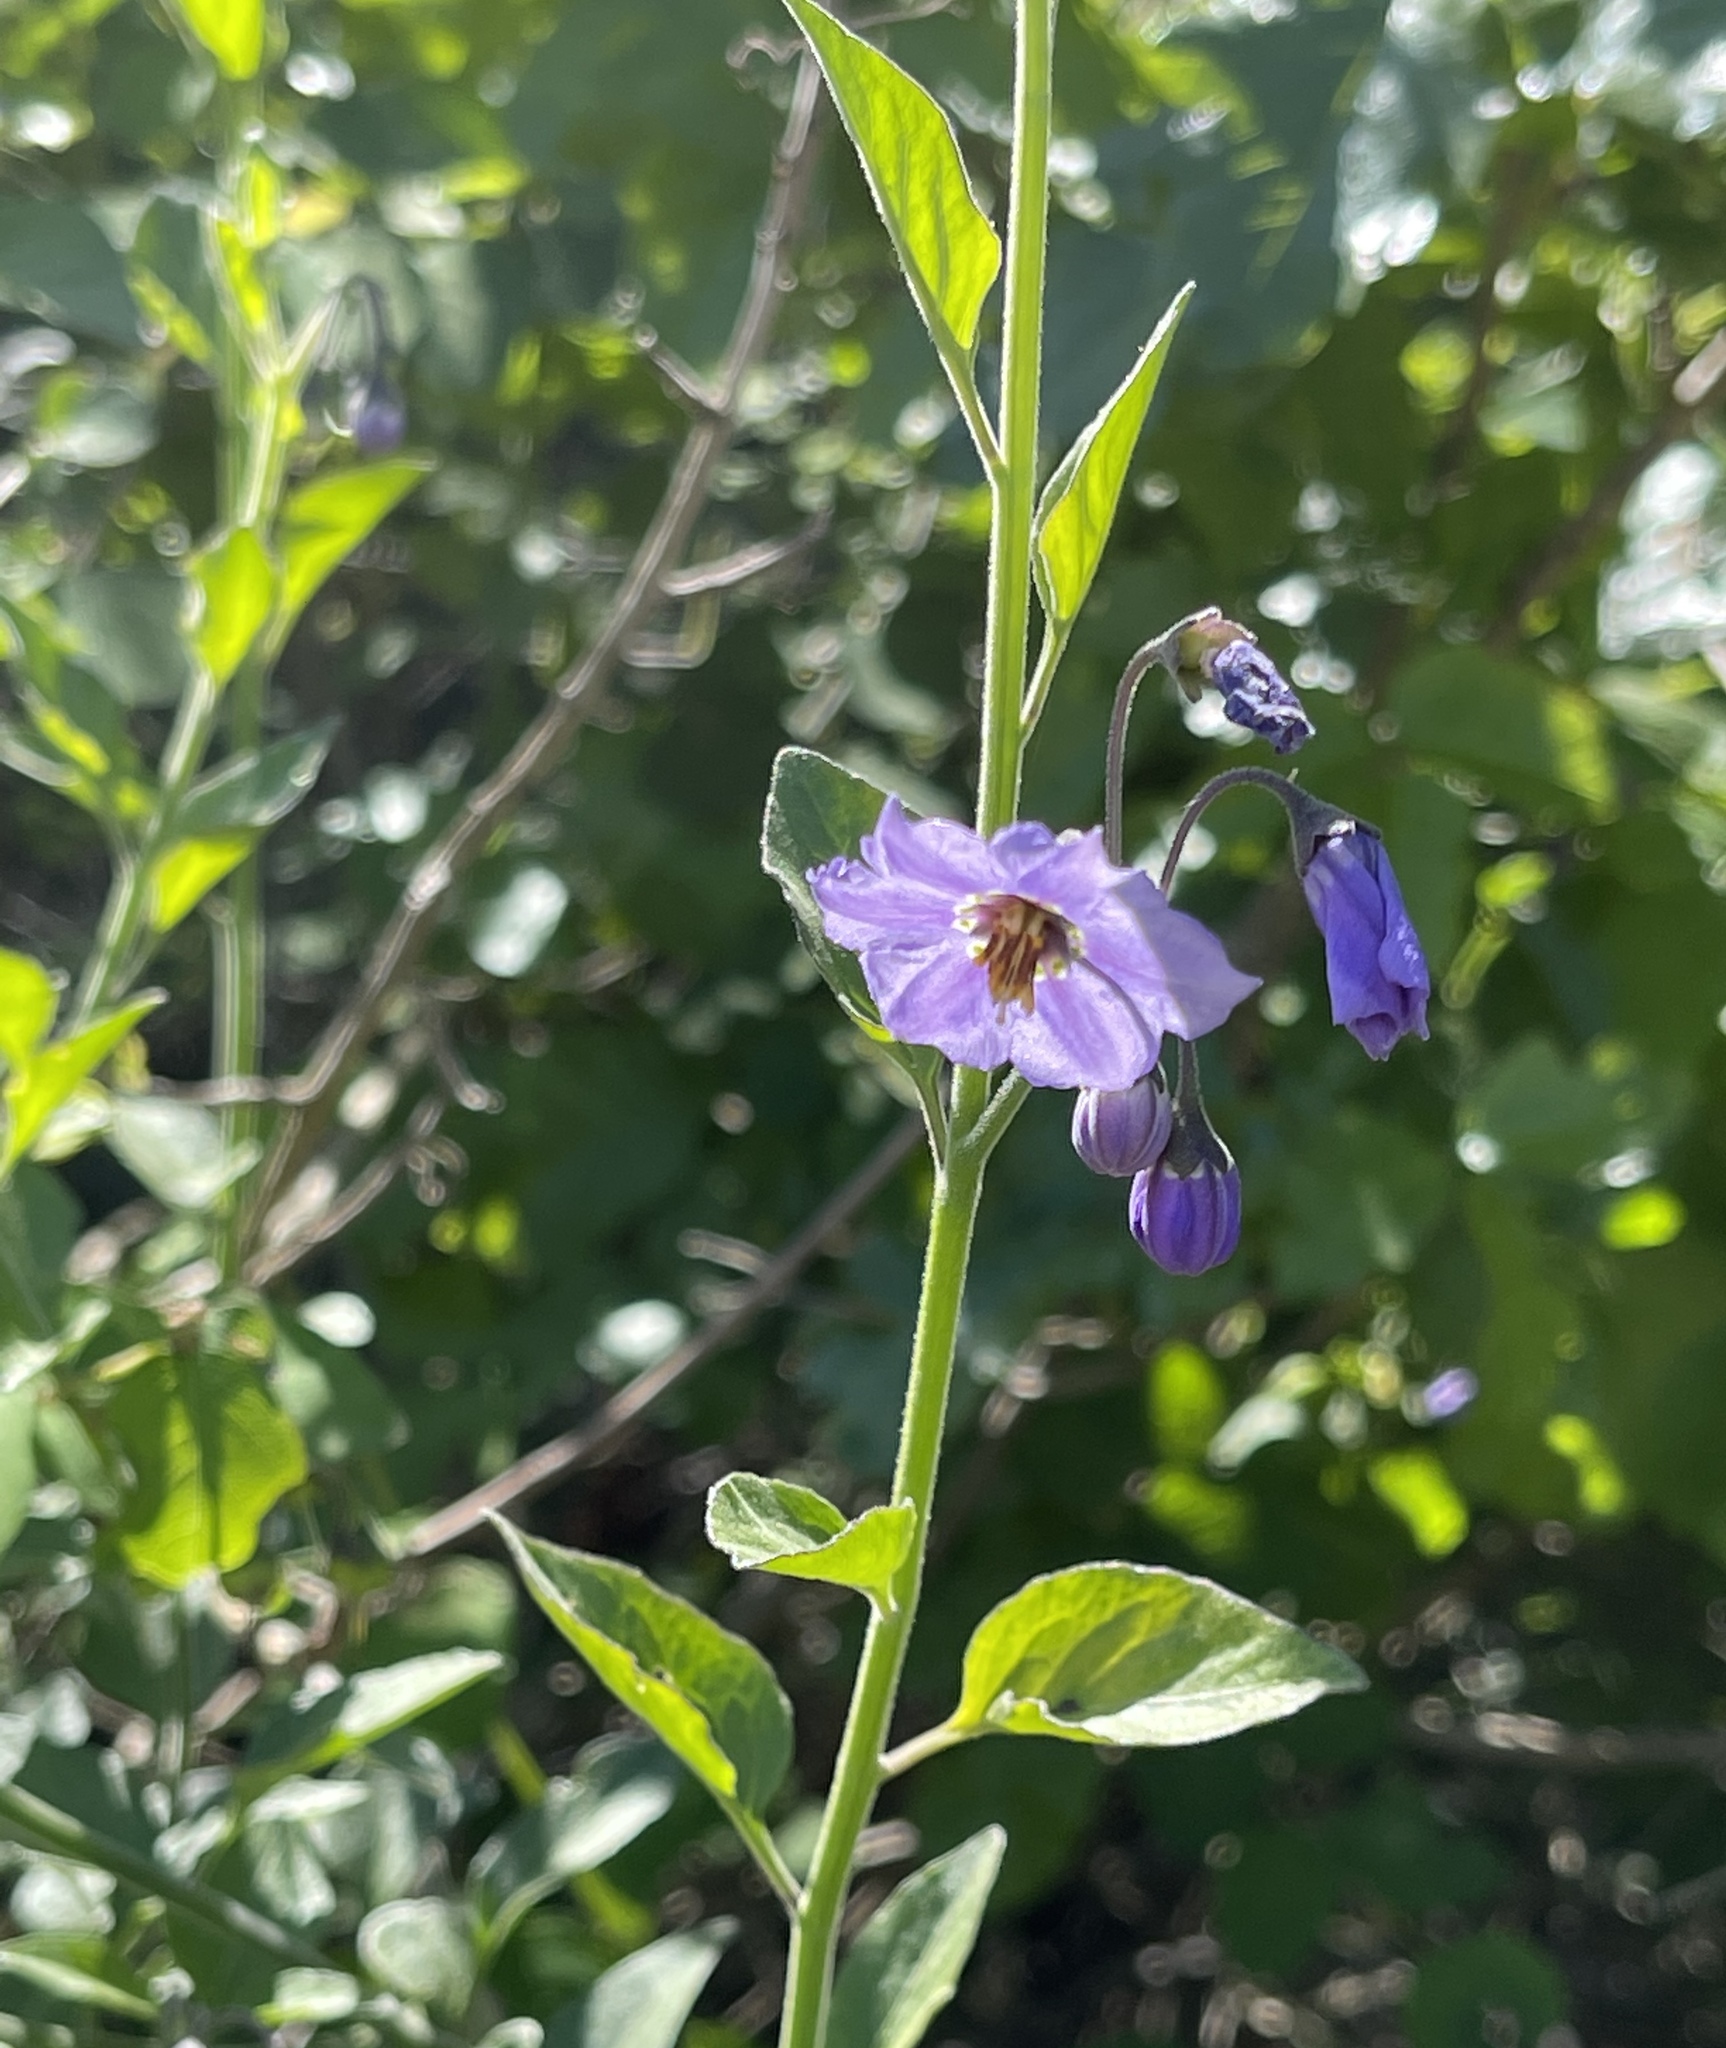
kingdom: Plantae
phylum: Tracheophyta
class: Magnoliopsida
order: Solanales
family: Solanaceae
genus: Solanum
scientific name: Solanum umbelliferum
